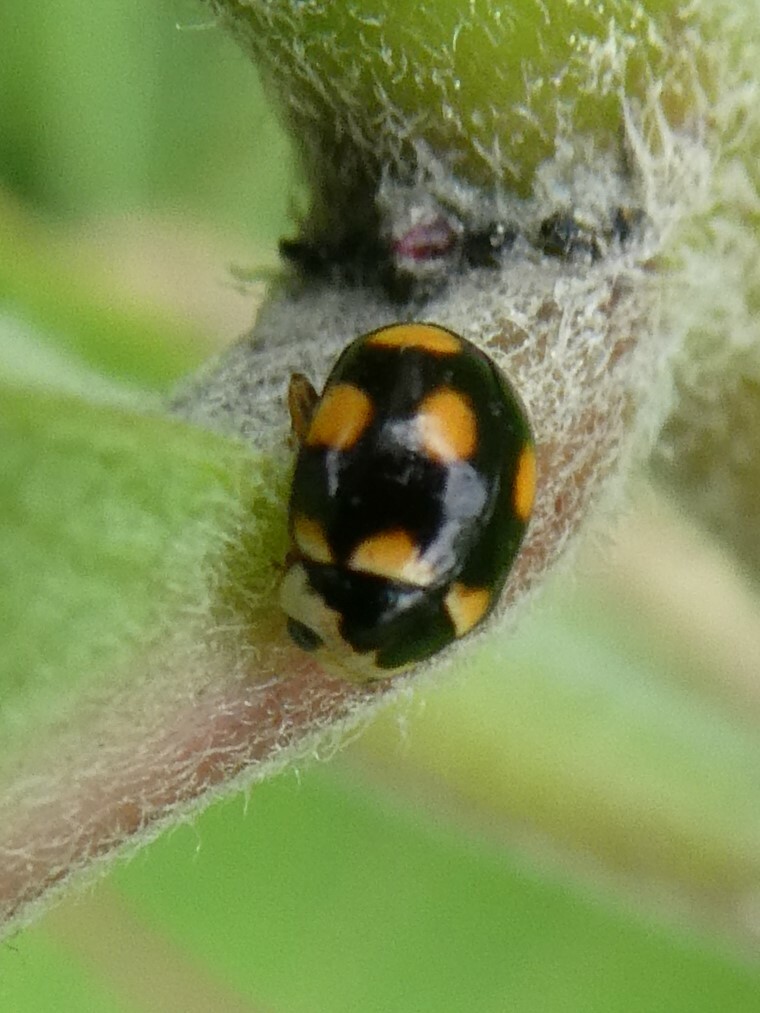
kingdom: Animalia
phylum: Arthropoda
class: Insecta
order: Coleoptera
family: Coccinellidae
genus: Brachiacantha
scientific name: Brachiacantha ursina
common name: Ursine spurleg lady beetle
